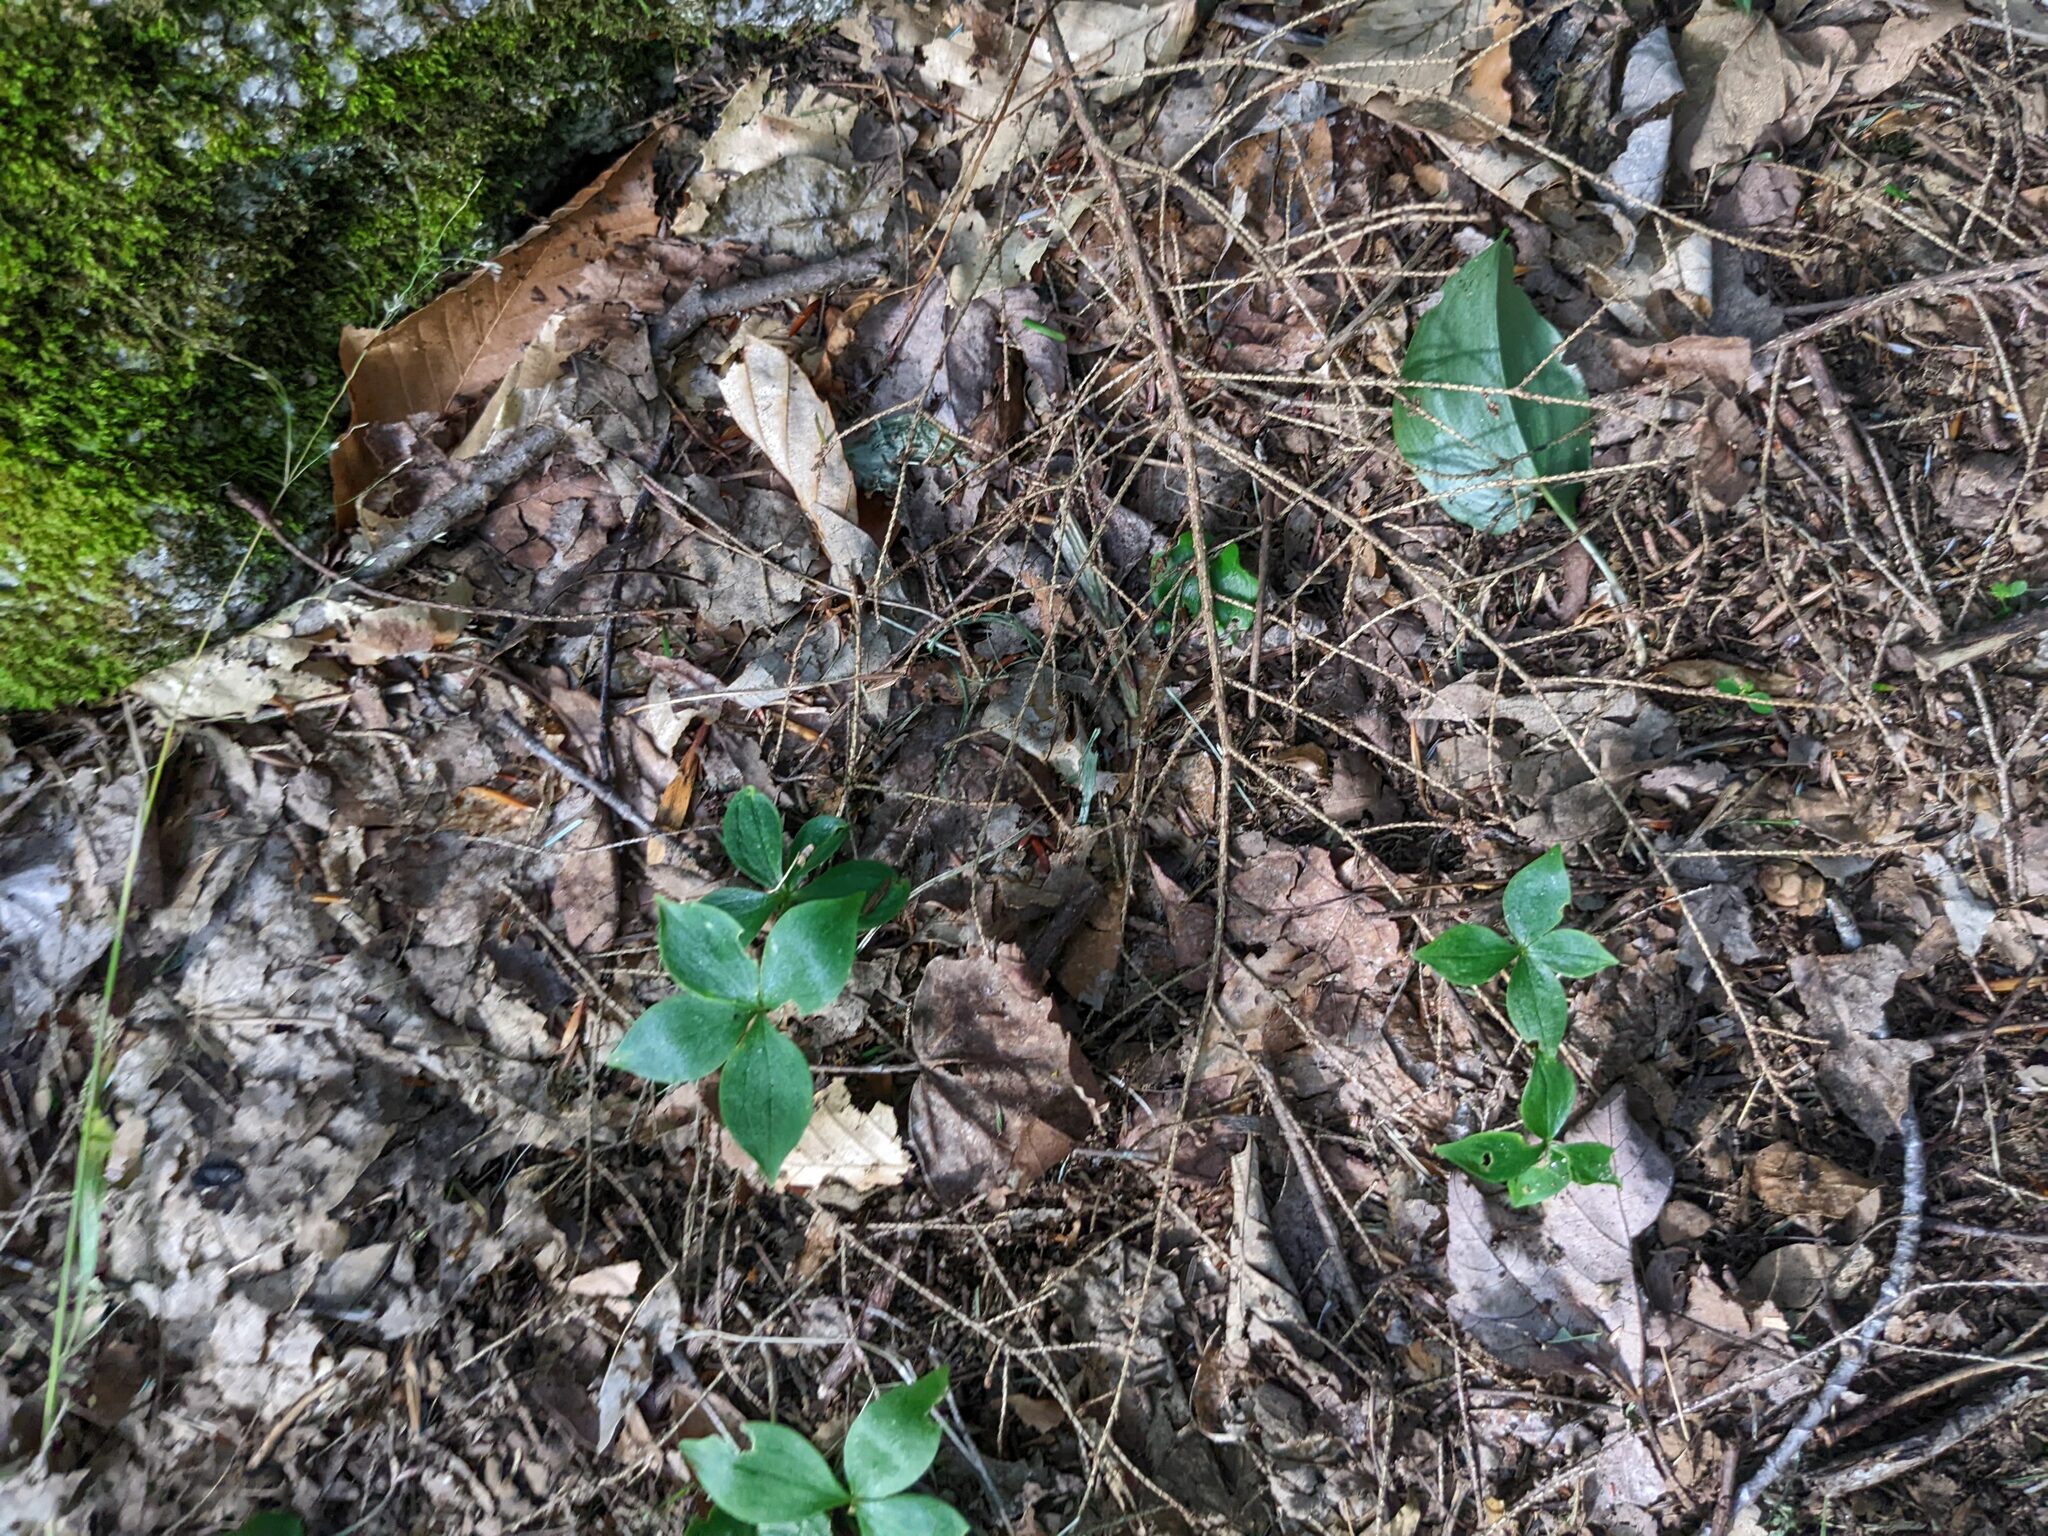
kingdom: Plantae
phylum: Tracheophyta
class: Magnoliopsida
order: Cornales
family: Cornaceae
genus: Cornus
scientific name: Cornus canadensis
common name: Creeping dogwood
